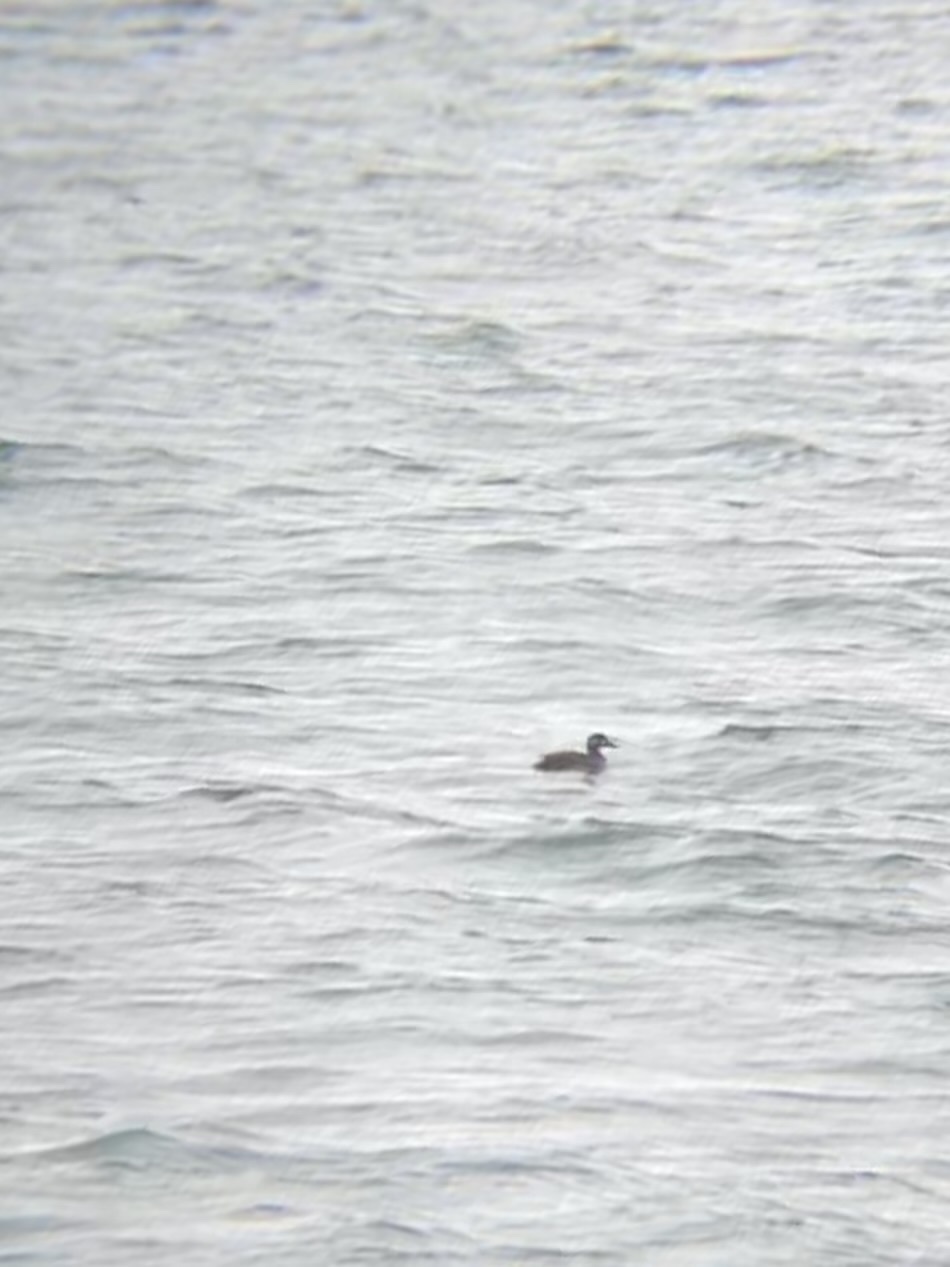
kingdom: Animalia
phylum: Chordata
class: Aves
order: Anseriformes
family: Anatidae
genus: Melanitta
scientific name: Melanitta perspicillata
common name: Surf scoter
